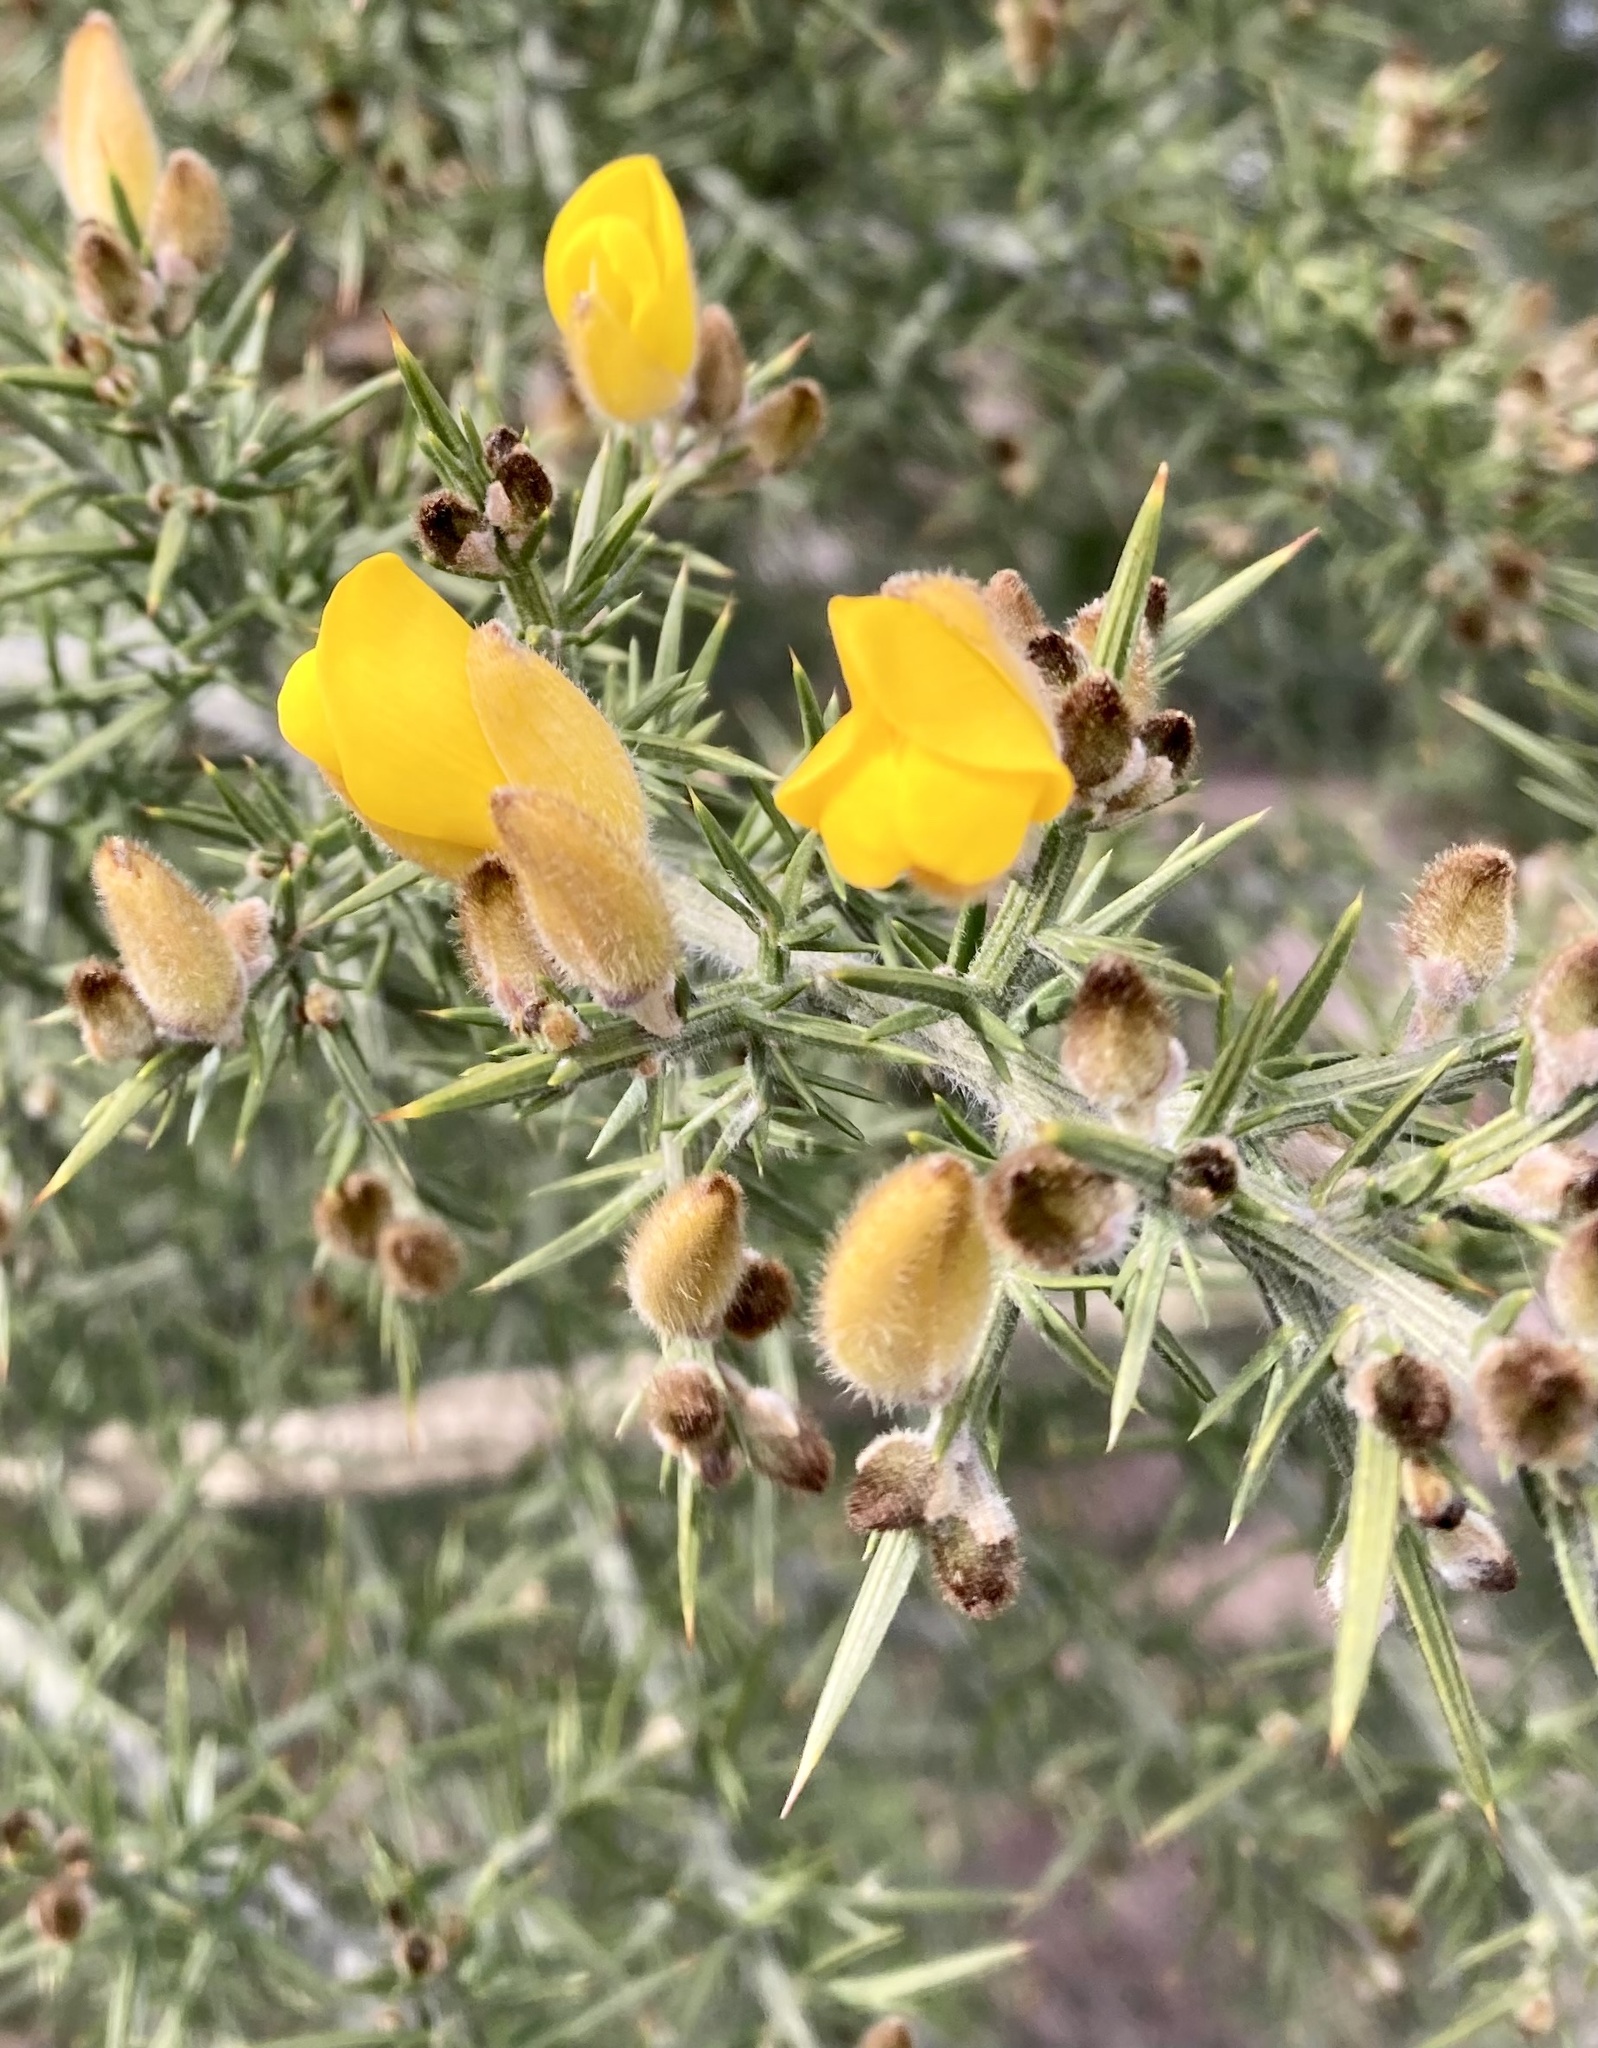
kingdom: Plantae
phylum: Tracheophyta
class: Magnoliopsida
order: Fabales
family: Fabaceae
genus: Ulex
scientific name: Ulex europaeus
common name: Common gorse
